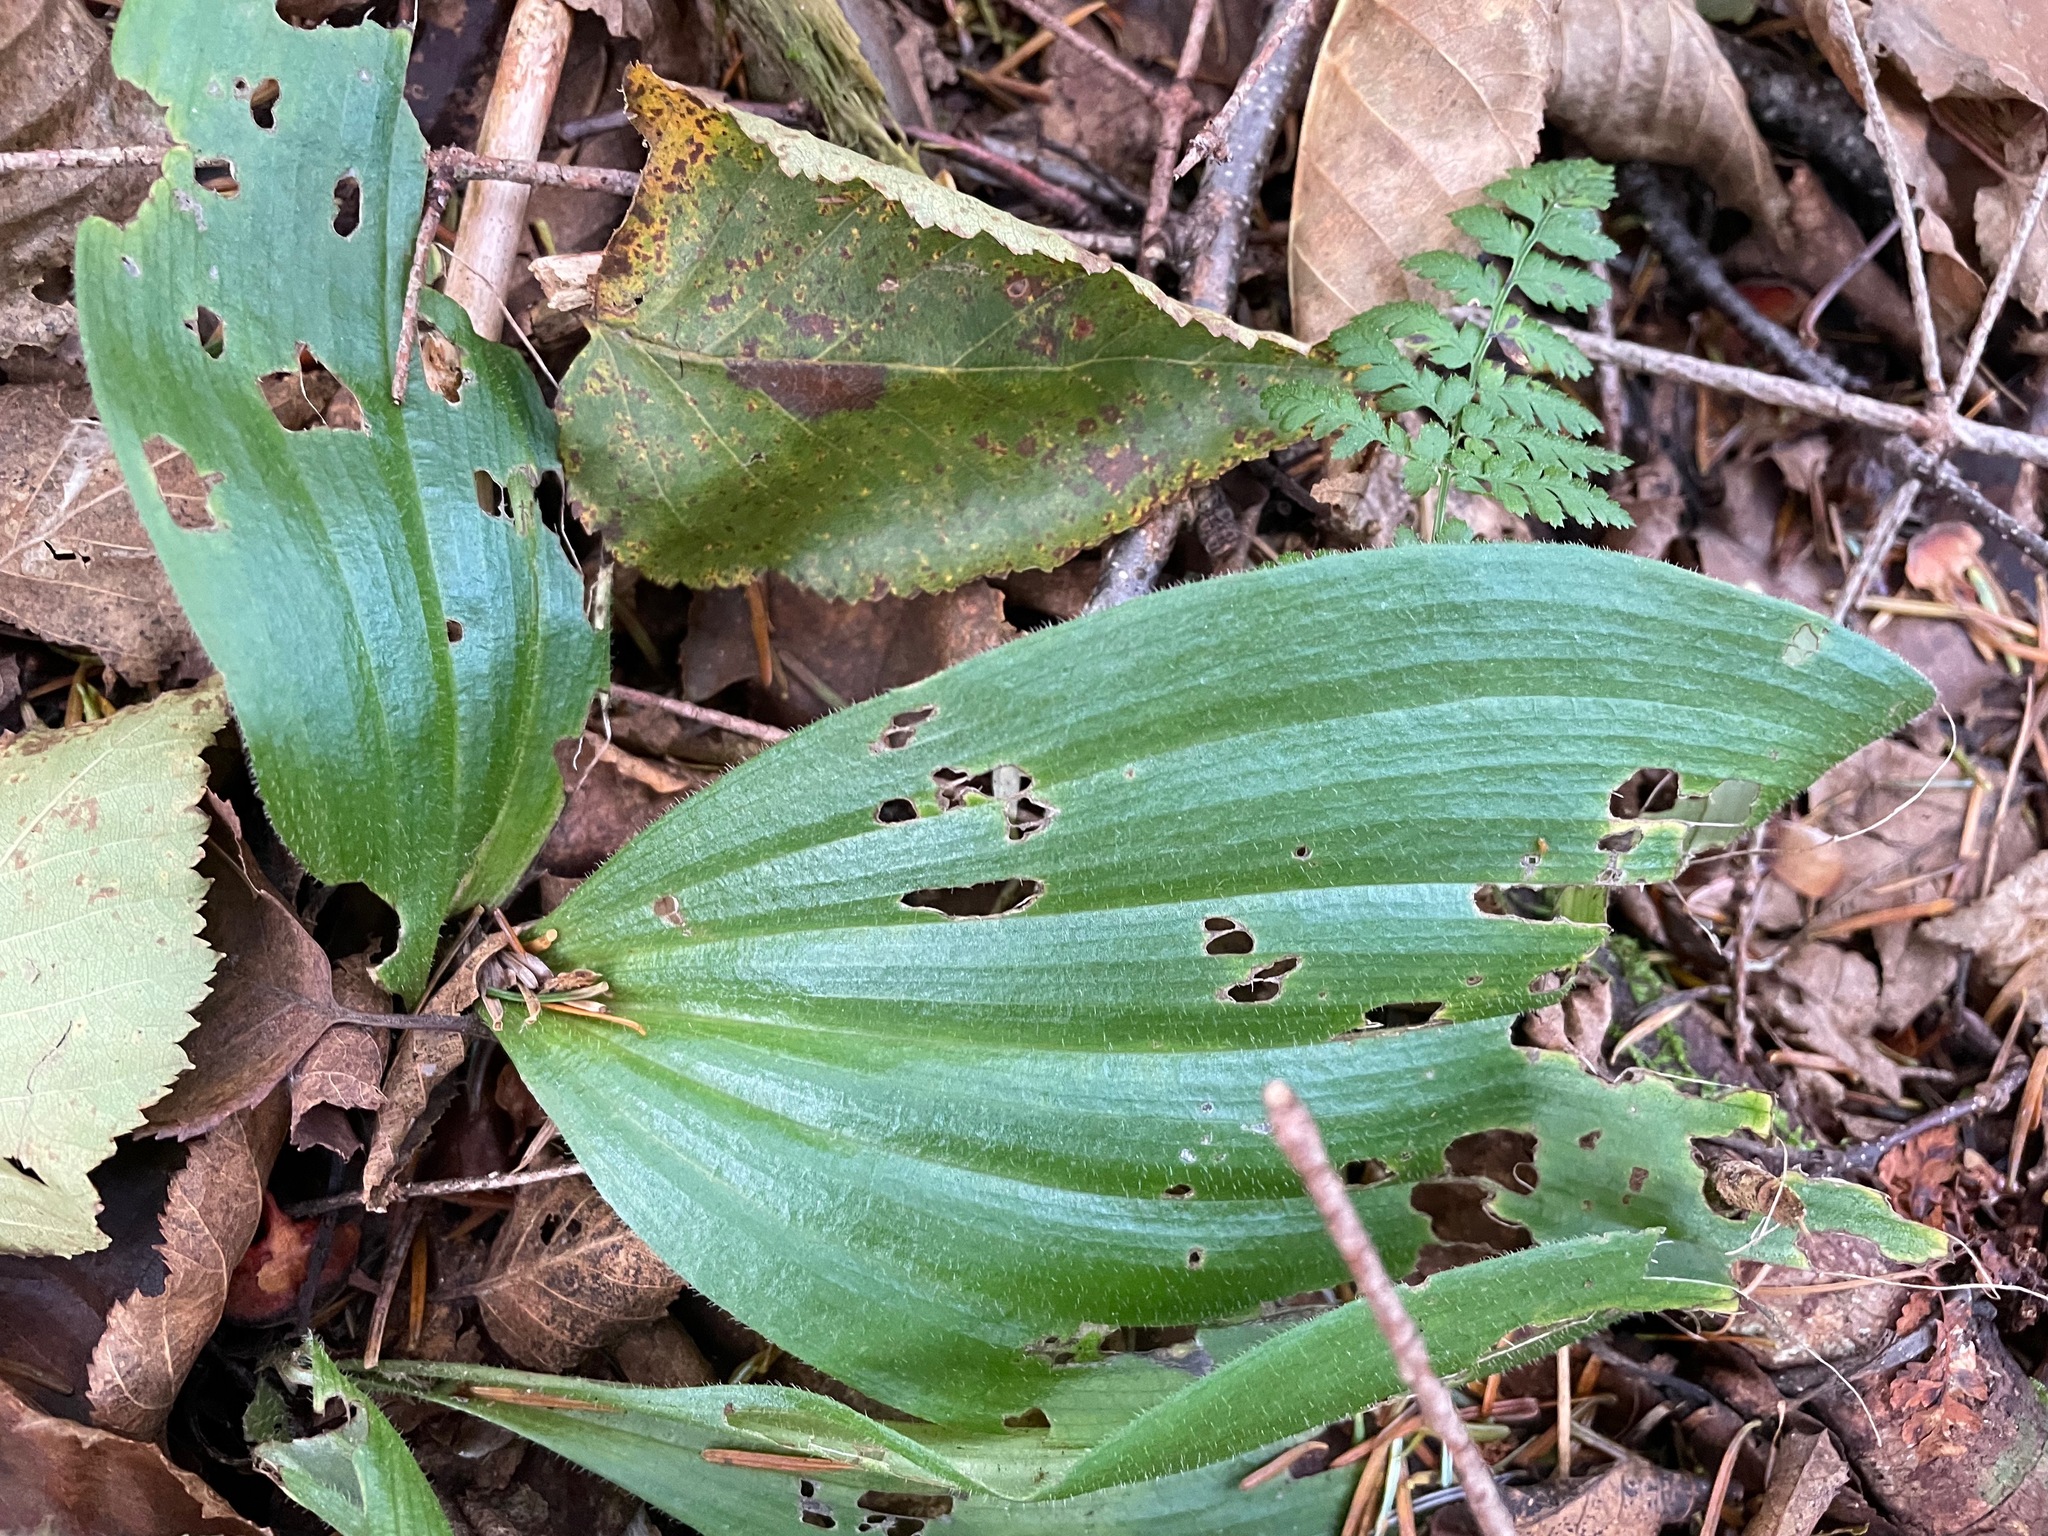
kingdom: Plantae
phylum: Tracheophyta
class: Liliopsida
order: Asparagales
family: Orchidaceae
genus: Cypripedium
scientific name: Cypripedium acaule
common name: Pink lady's-slipper
